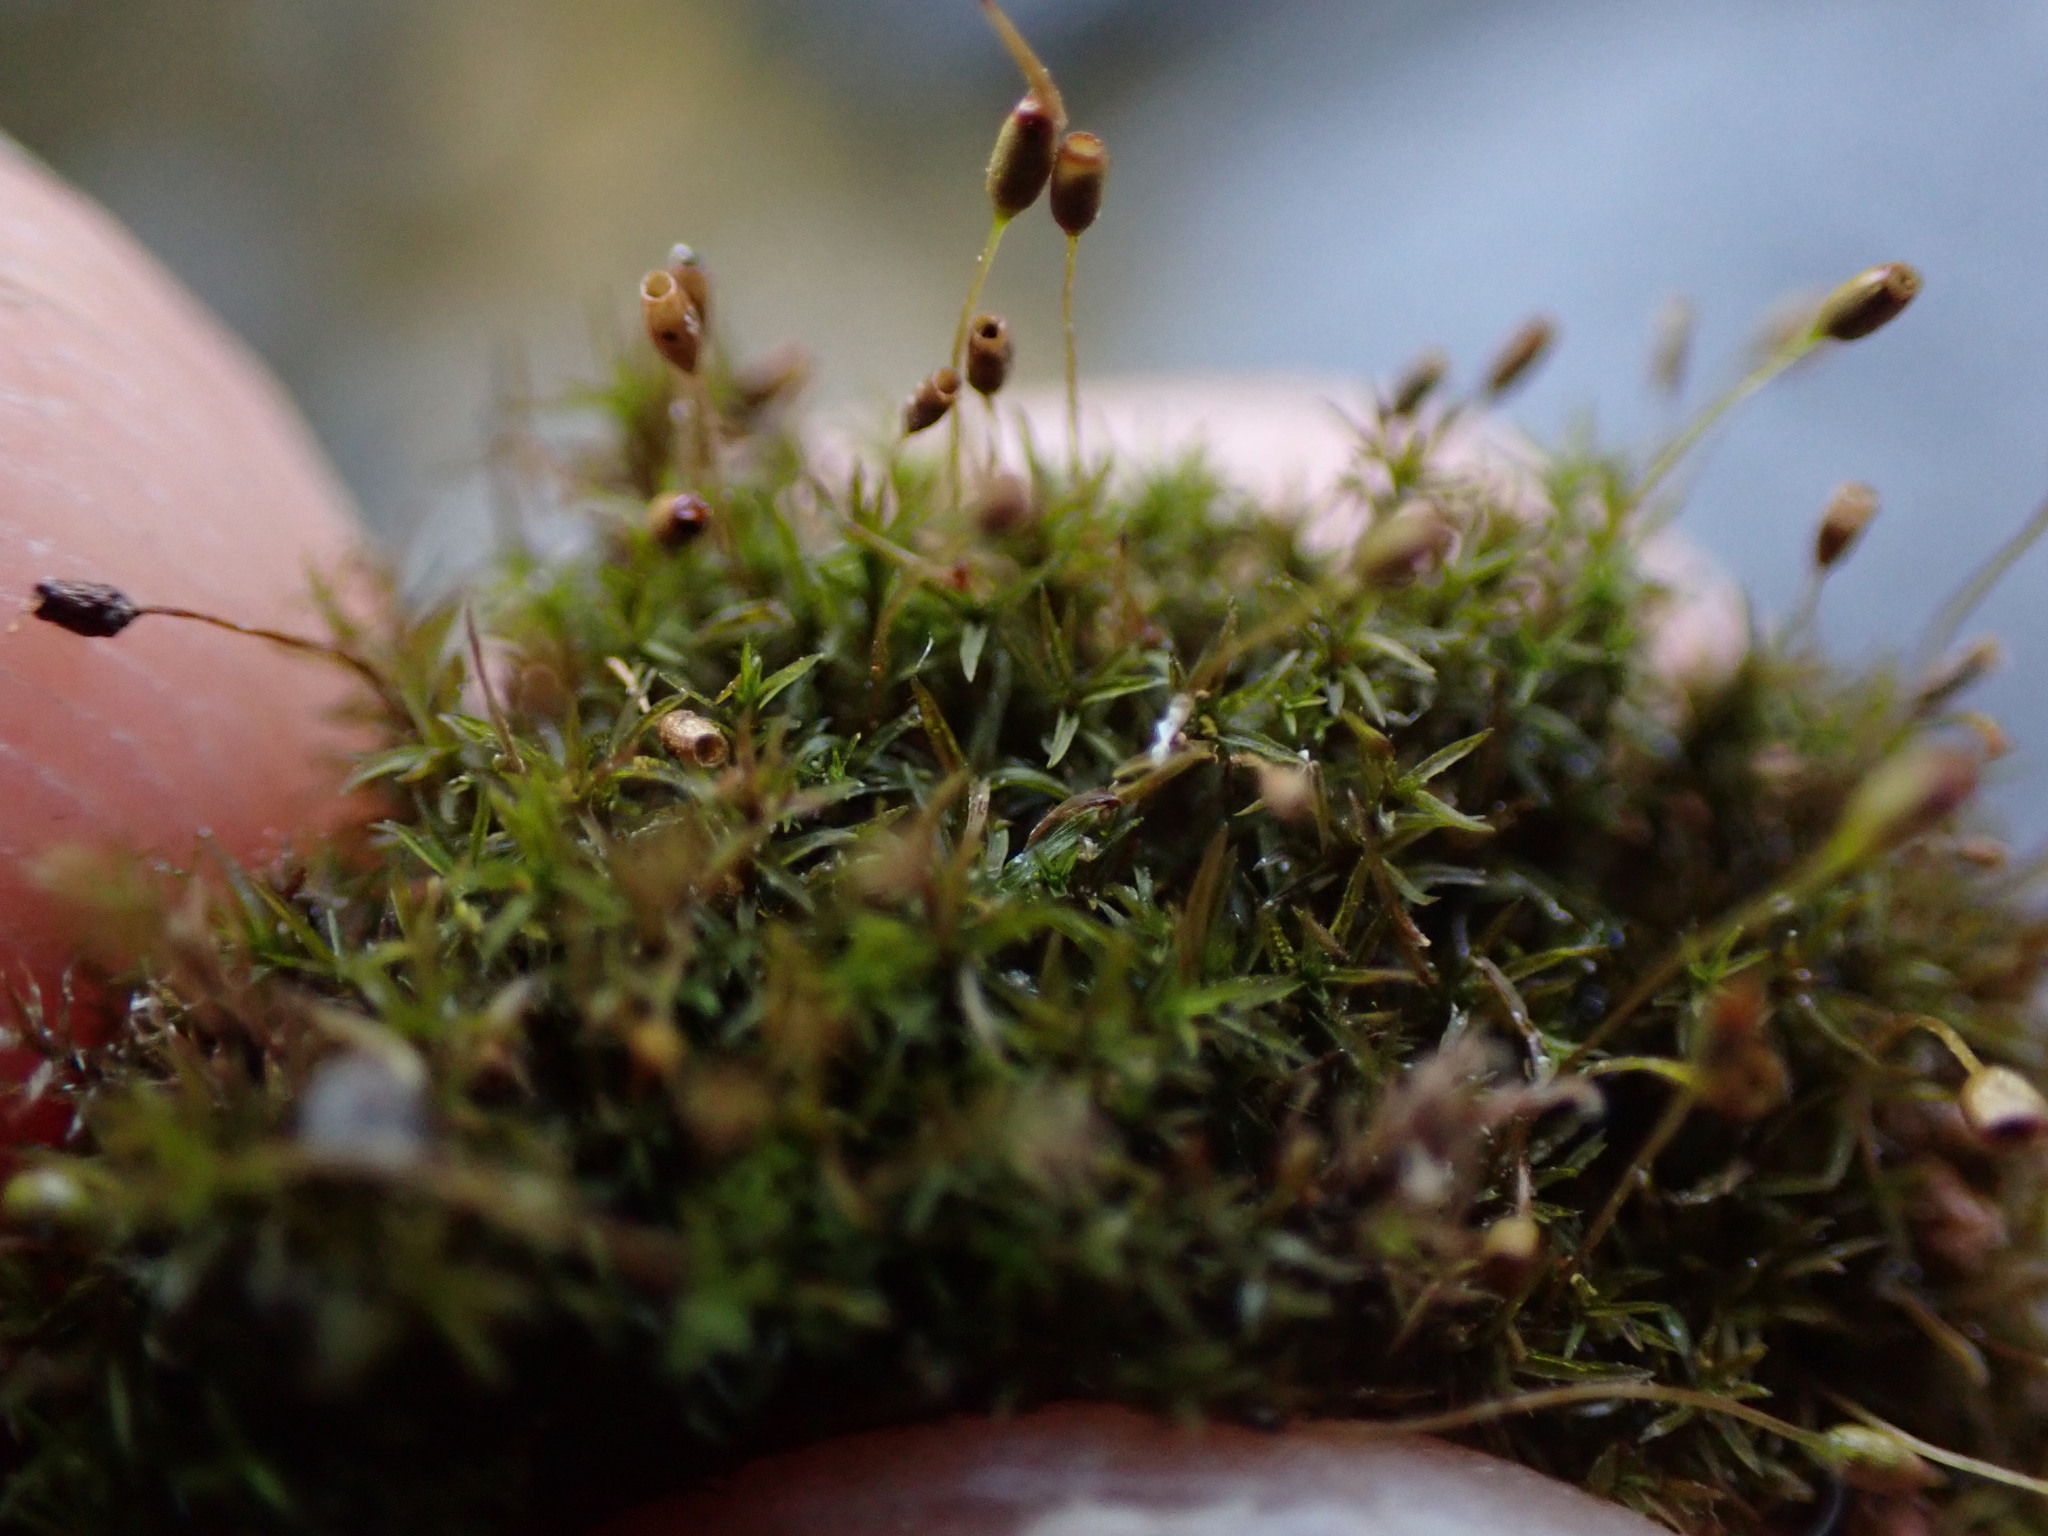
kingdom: Plantae
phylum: Bryophyta
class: Bryopsida
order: Pottiales
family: Pottiaceae
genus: Gymnostomum
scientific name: Gymnostomum aeruginosum
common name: Verdigris tufa-moss
